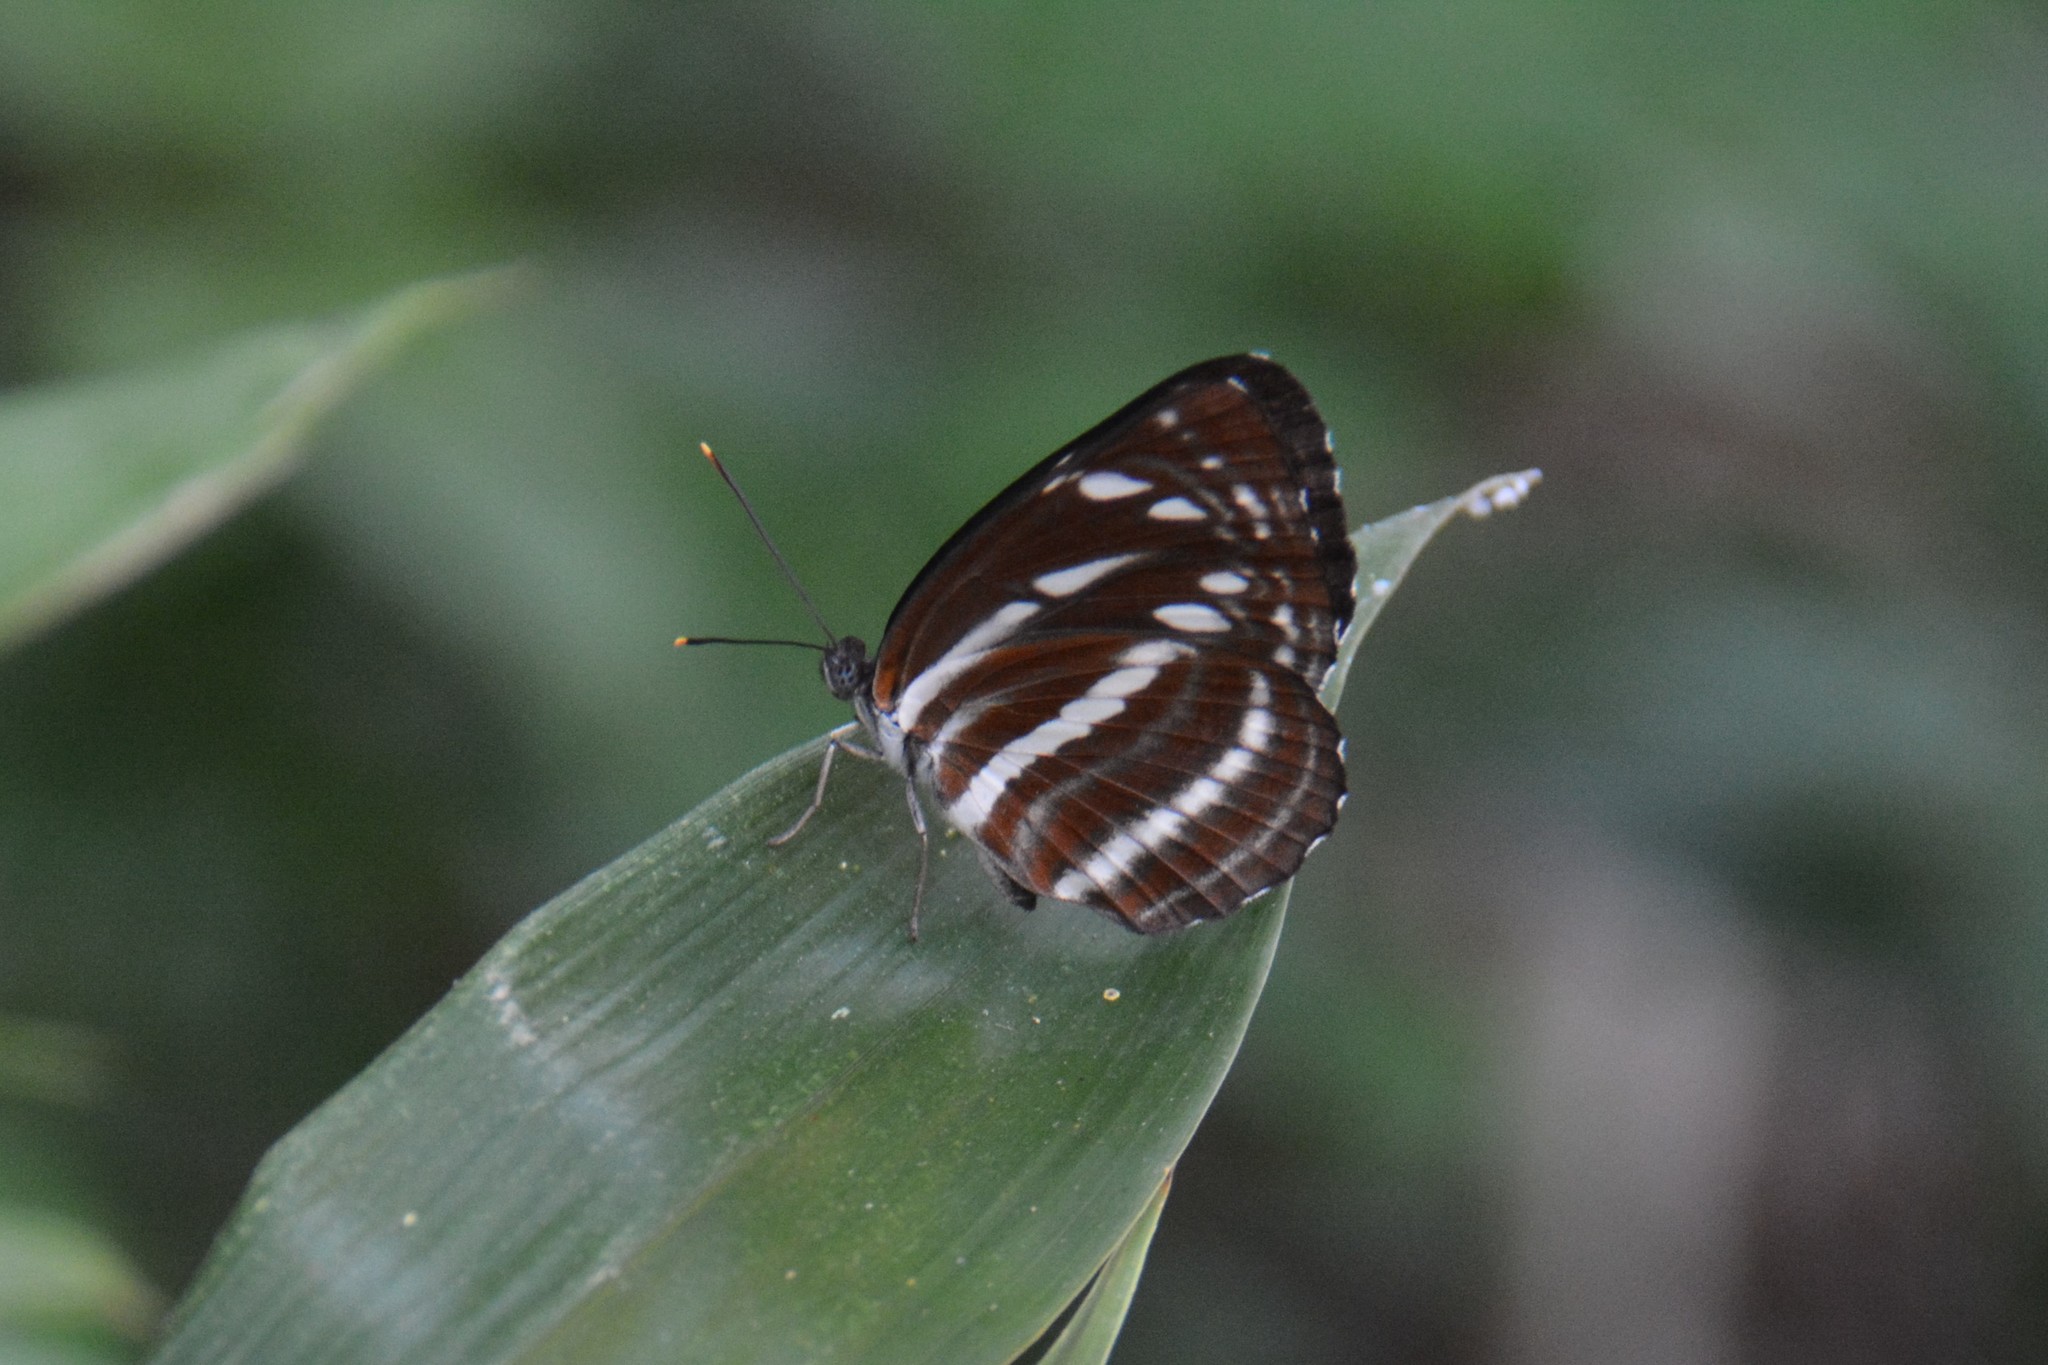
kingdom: Animalia
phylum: Arthropoda
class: Insecta
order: Lepidoptera
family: Nymphalidae
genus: Neptis
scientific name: Neptis nata
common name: Sullied brown sailer
